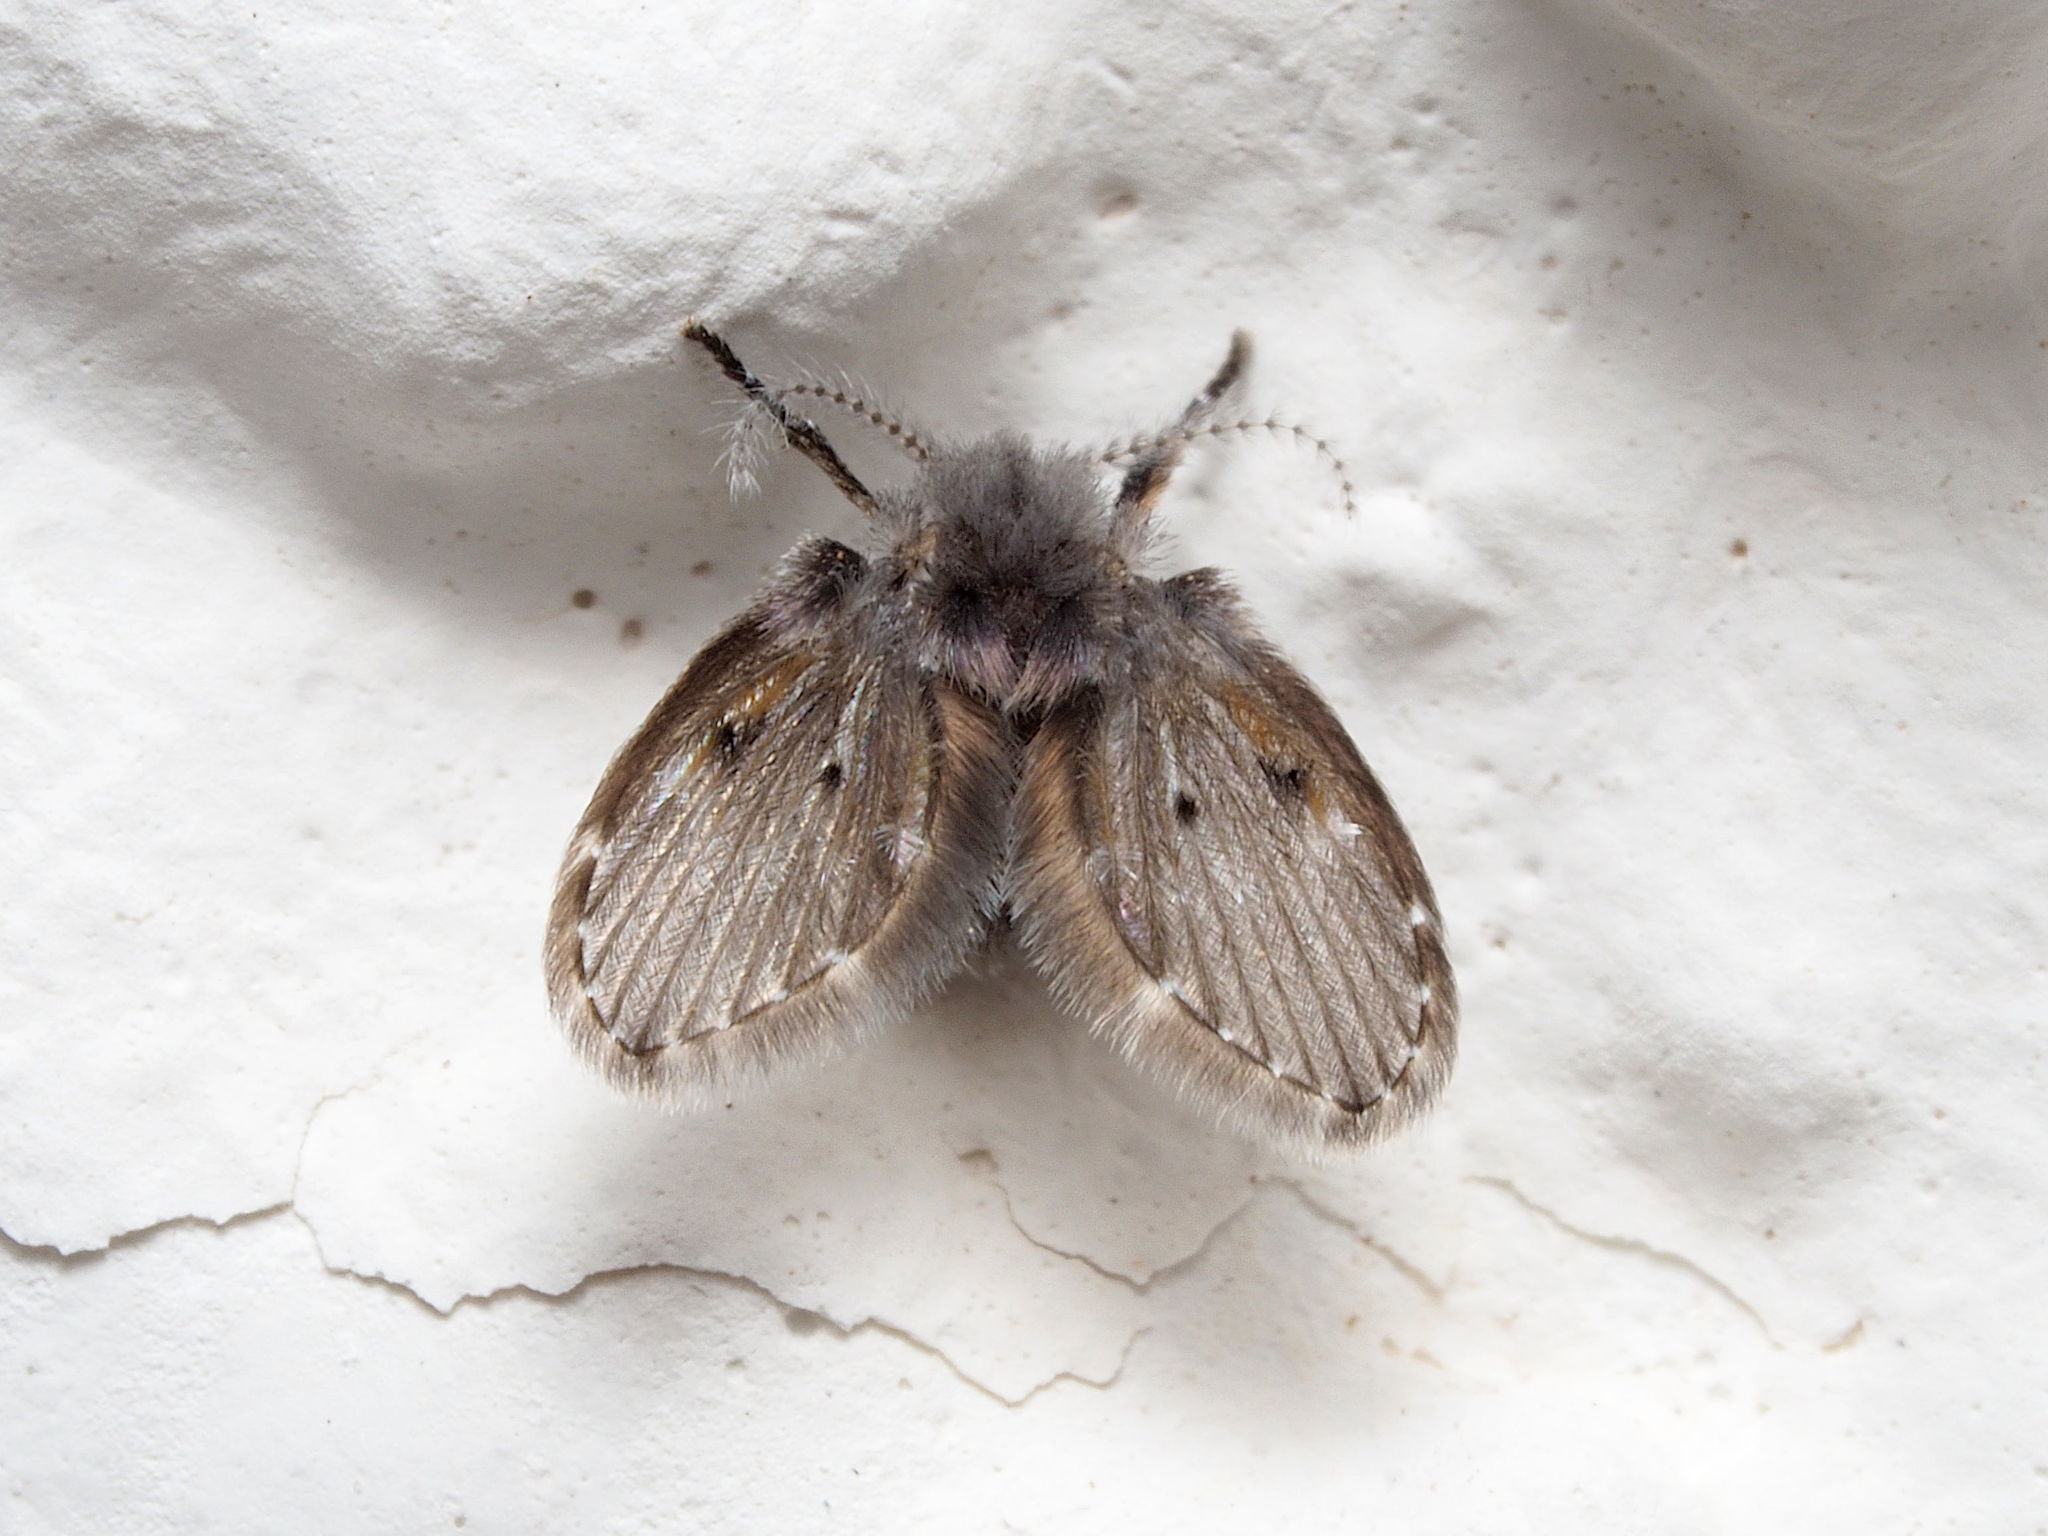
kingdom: Animalia
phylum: Arthropoda
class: Insecta
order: Diptera
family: Psychodidae
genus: Clogmia
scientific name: Clogmia albipunctatus
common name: White-spotted moth fly
